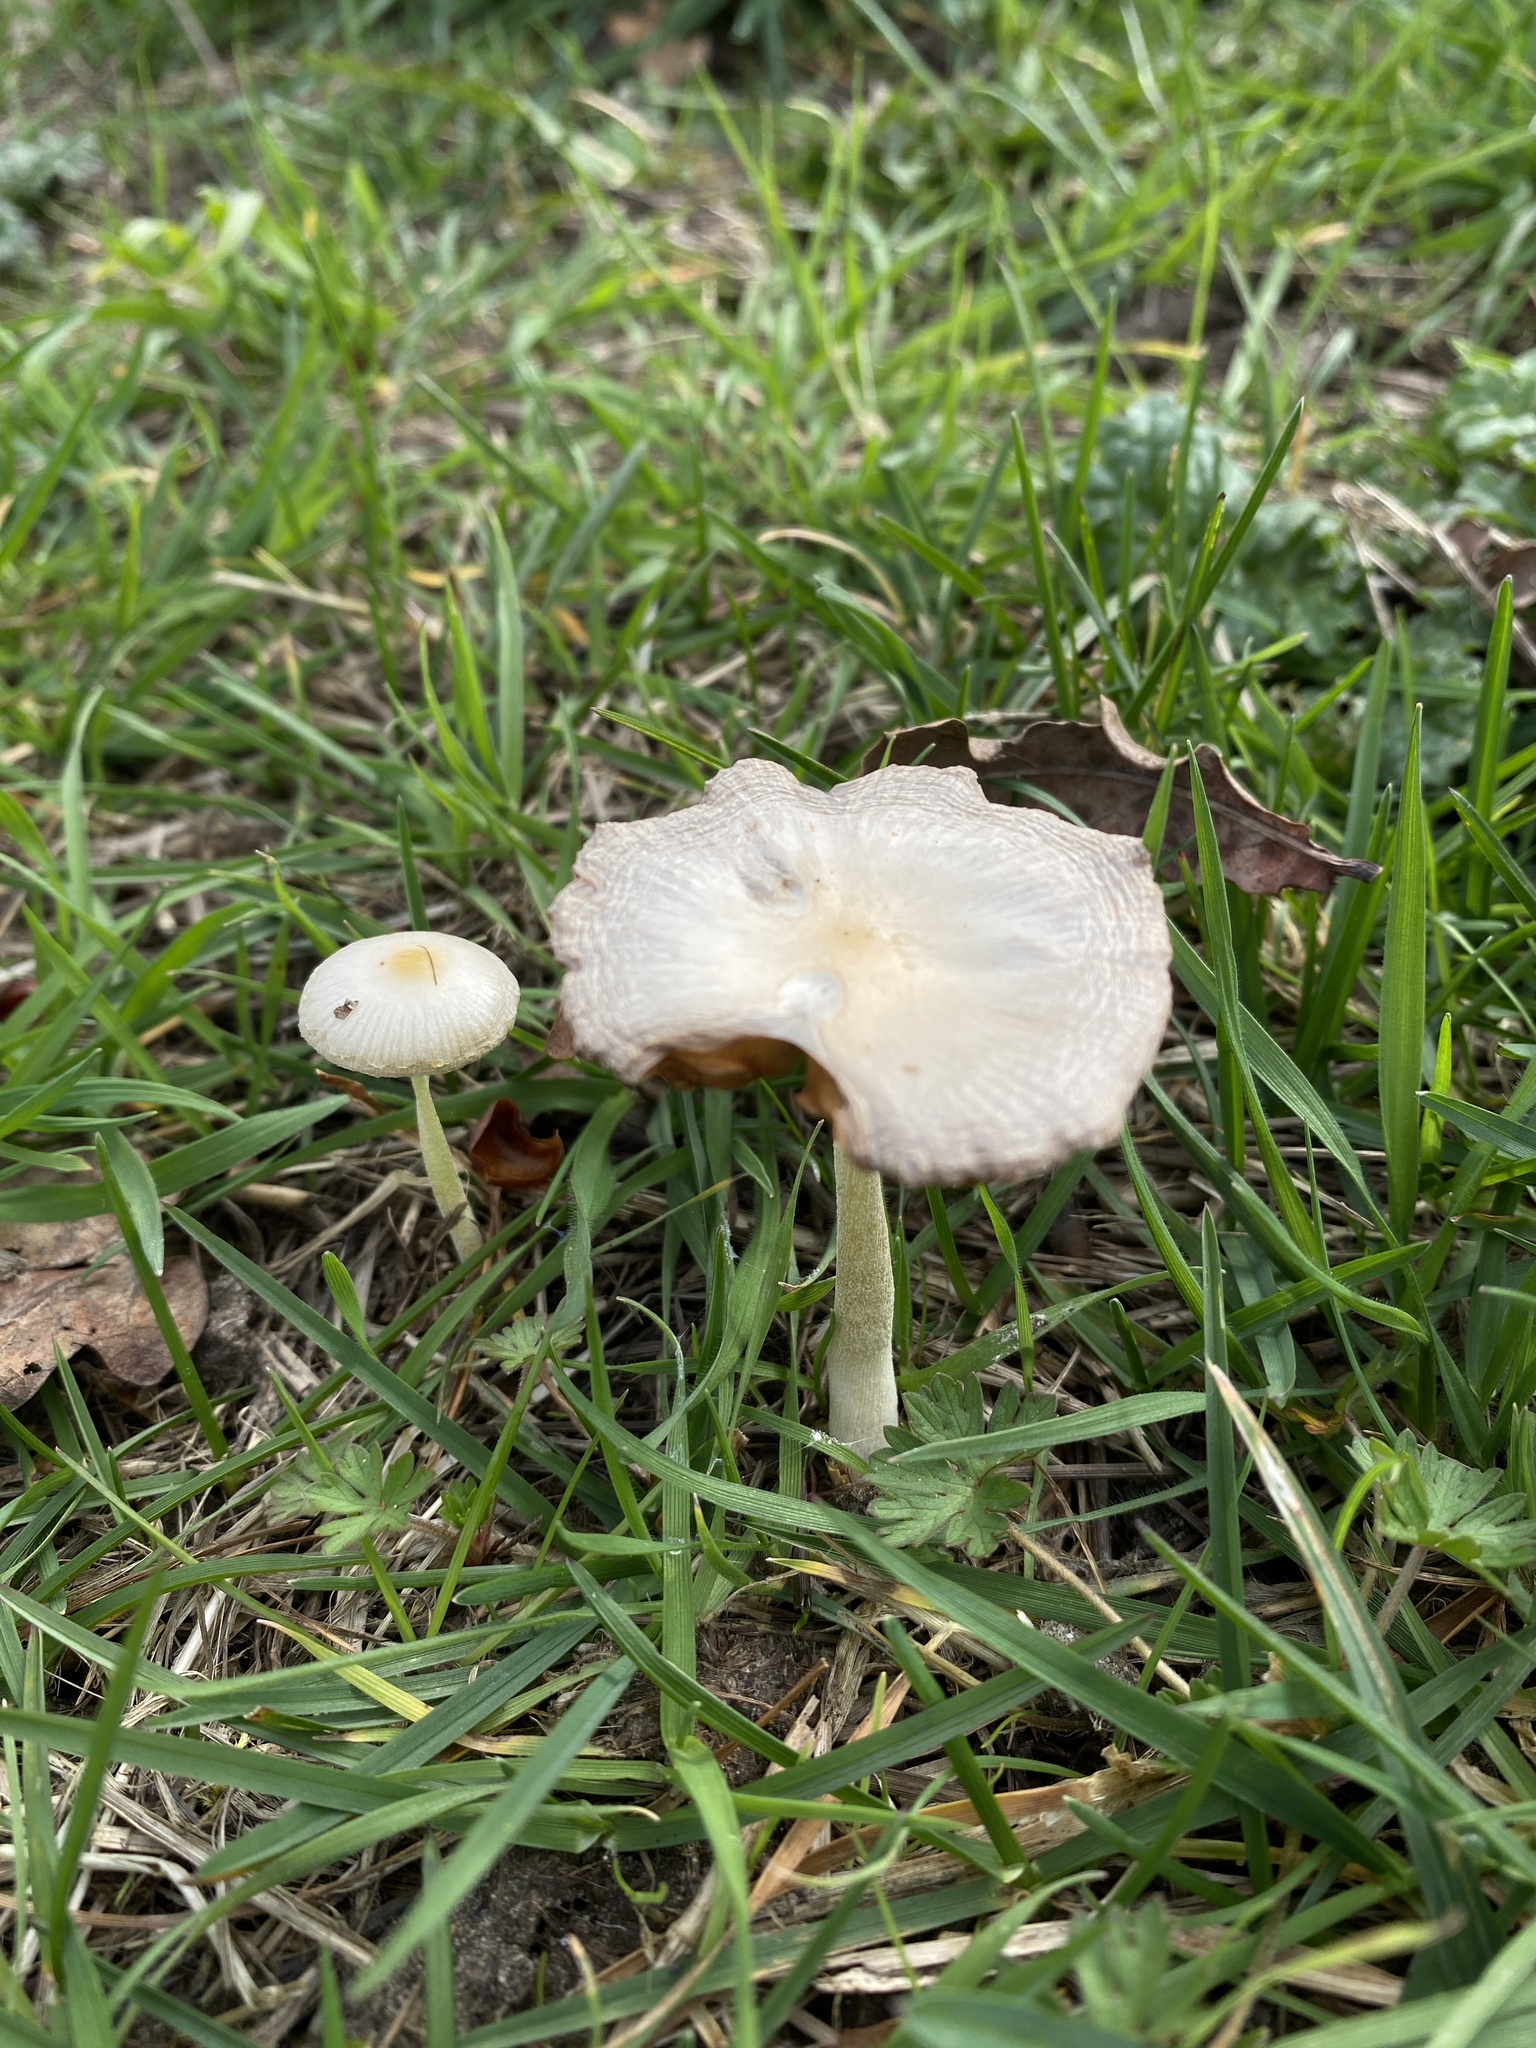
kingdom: Fungi
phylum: Basidiomycota
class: Agaricomycetes
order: Agaricales
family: Bolbitiaceae
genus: Bolbitius
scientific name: Bolbitius titubans
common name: Yellow fieldcap
